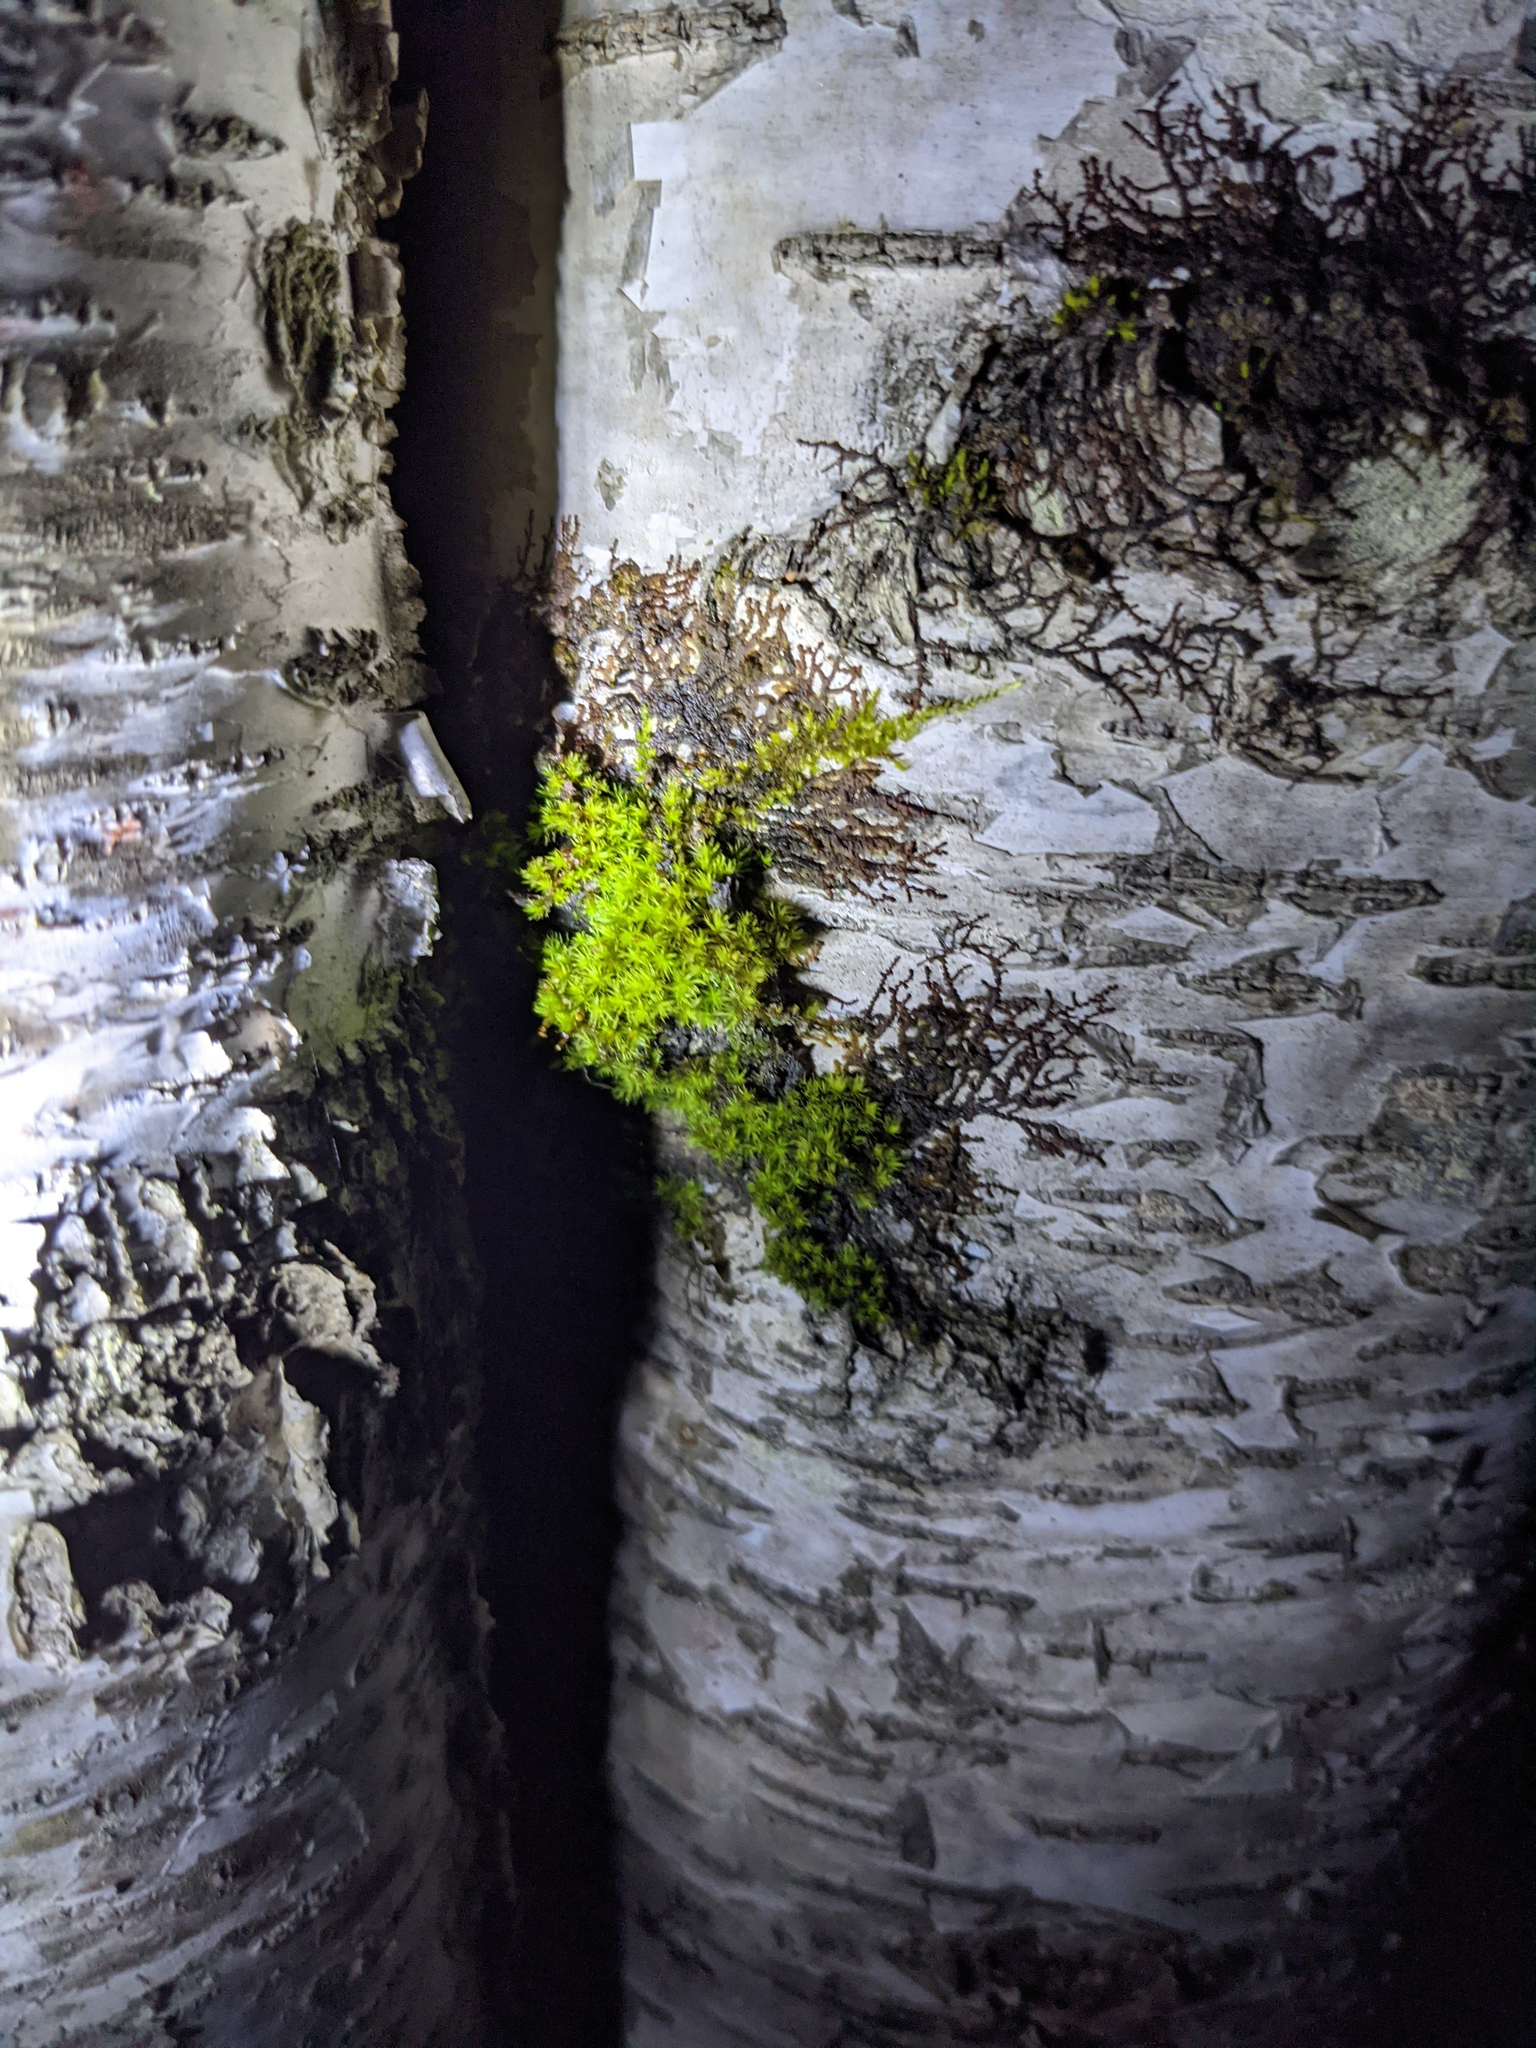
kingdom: Plantae
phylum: Bryophyta
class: Bryopsida
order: Orthotrichales
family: Orthotrichaceae
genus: Ulota
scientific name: Ulota crispa
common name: Crisped pincushion moss
